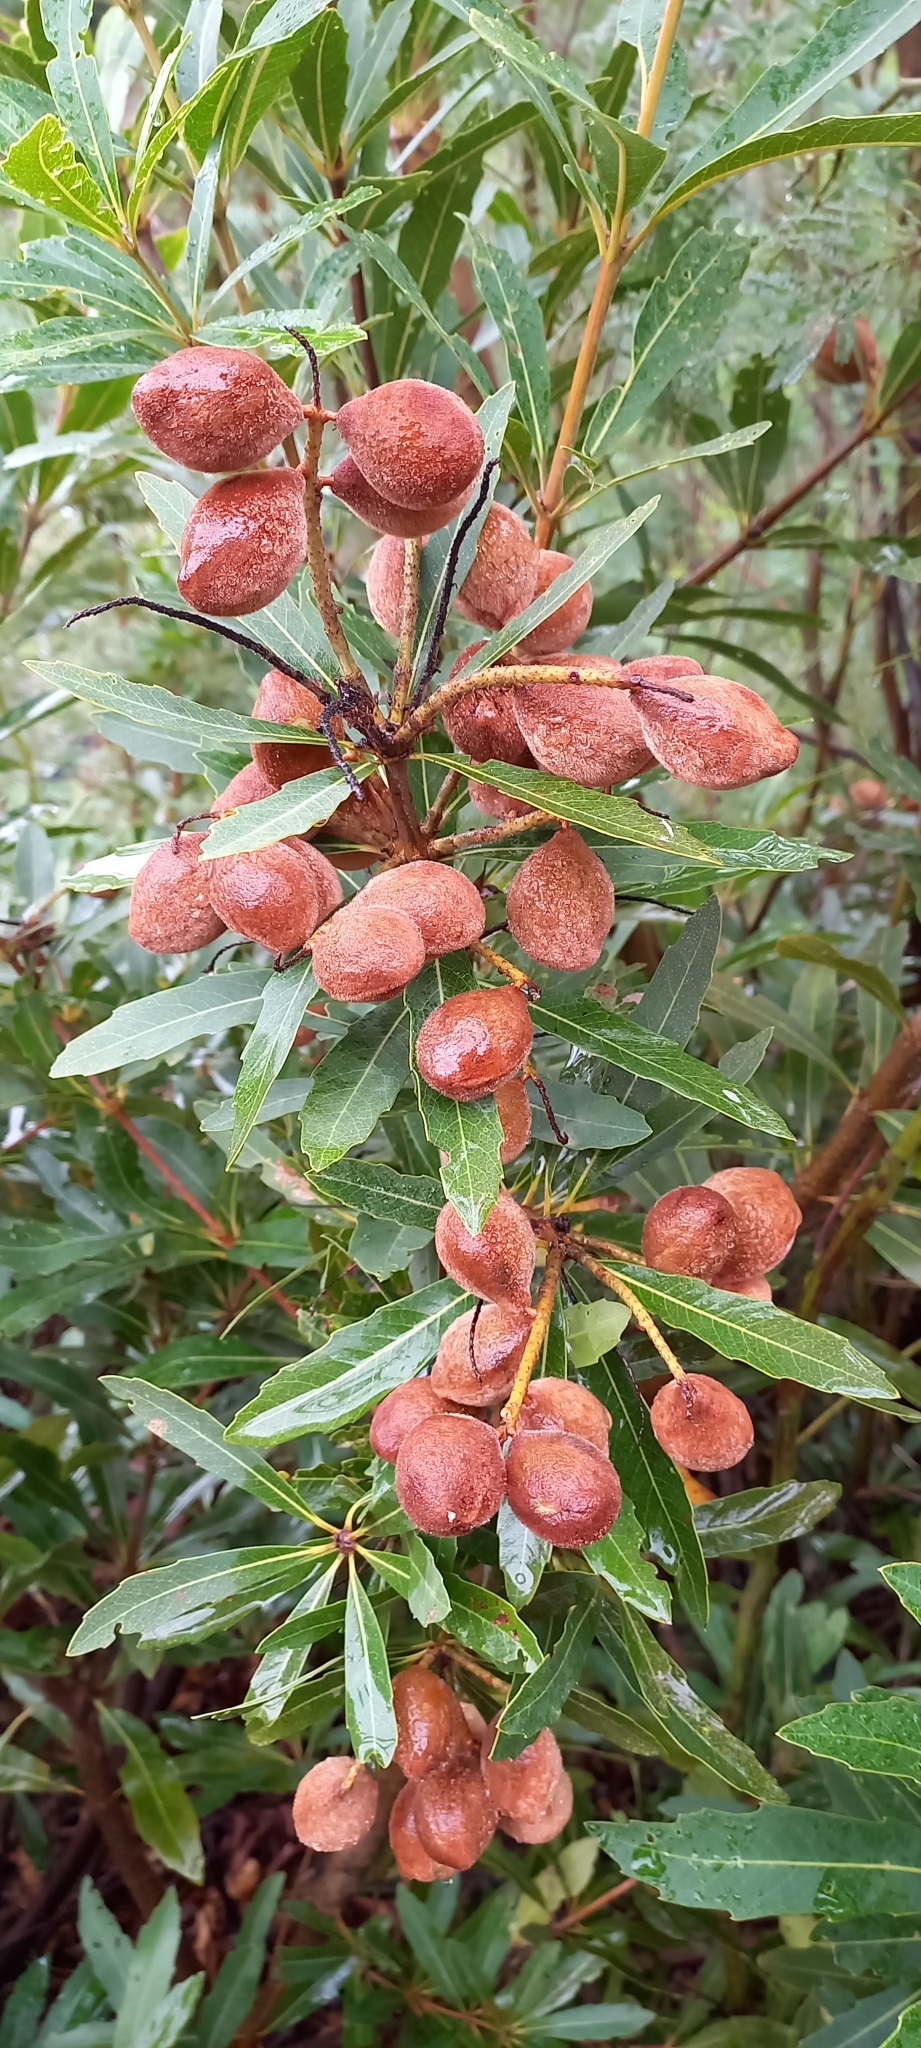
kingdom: Plantae
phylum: Tracheophyta
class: Magnoliopsida
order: Proteales
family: Proteaceae
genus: Brabejum
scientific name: Brabejum stellatifolium
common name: Wild almond
